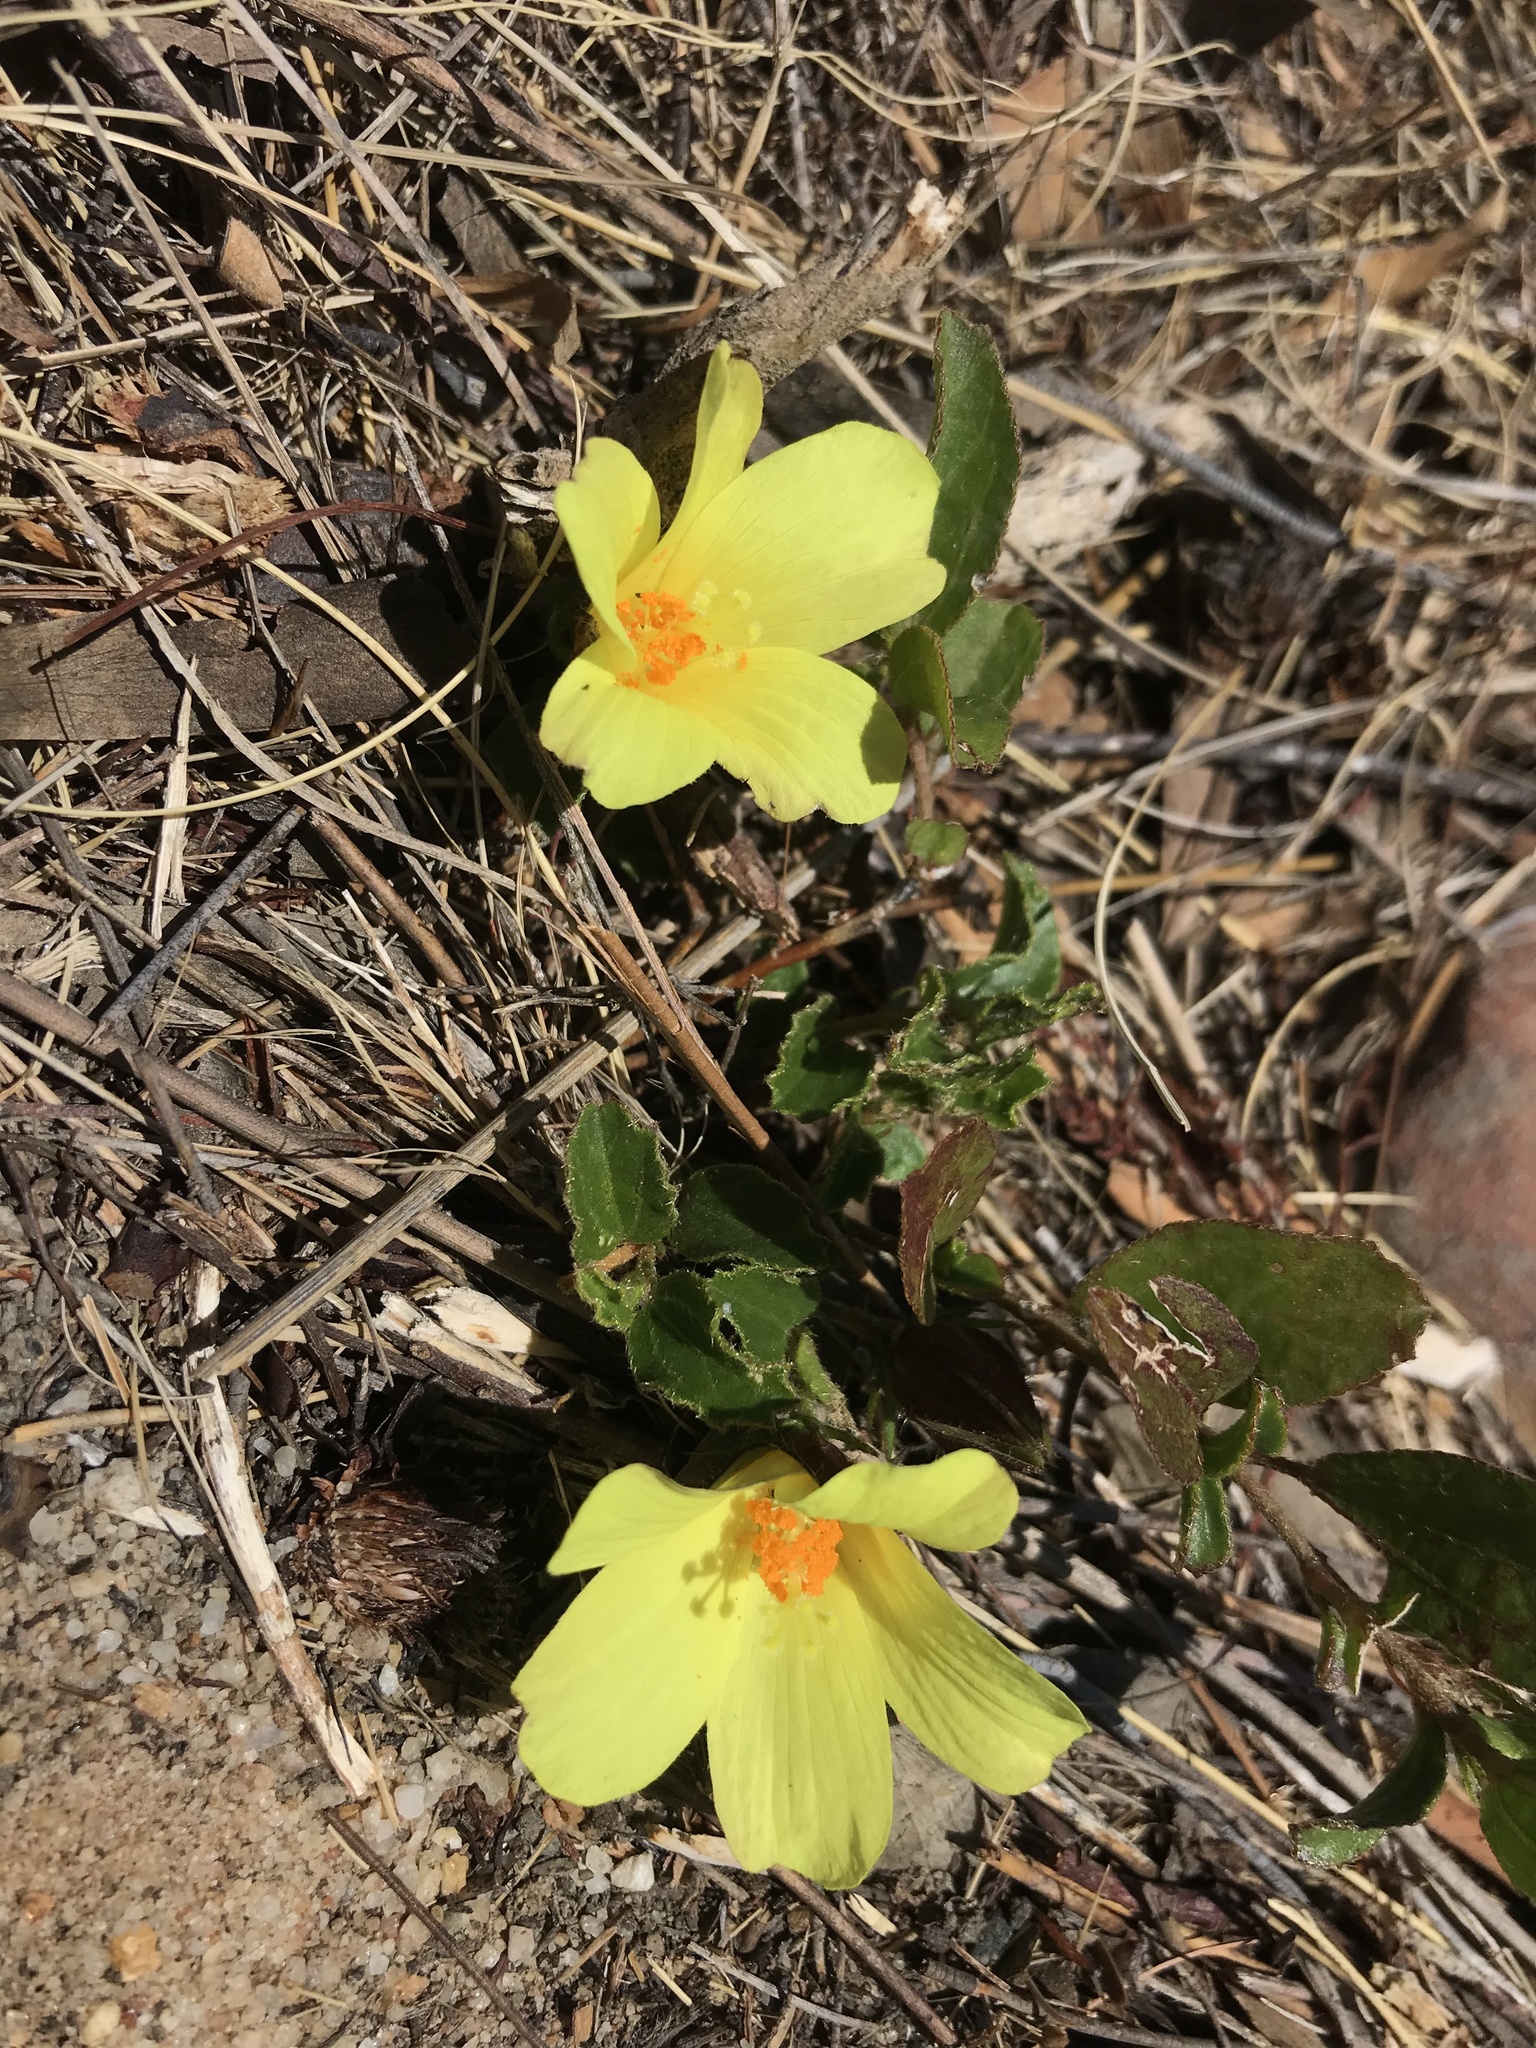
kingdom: Plantae
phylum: Tracheophyta
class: Magnoliopsida
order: Malvales
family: Malvaceae
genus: Hibiscus
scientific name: Hibiscus aethiopicus
